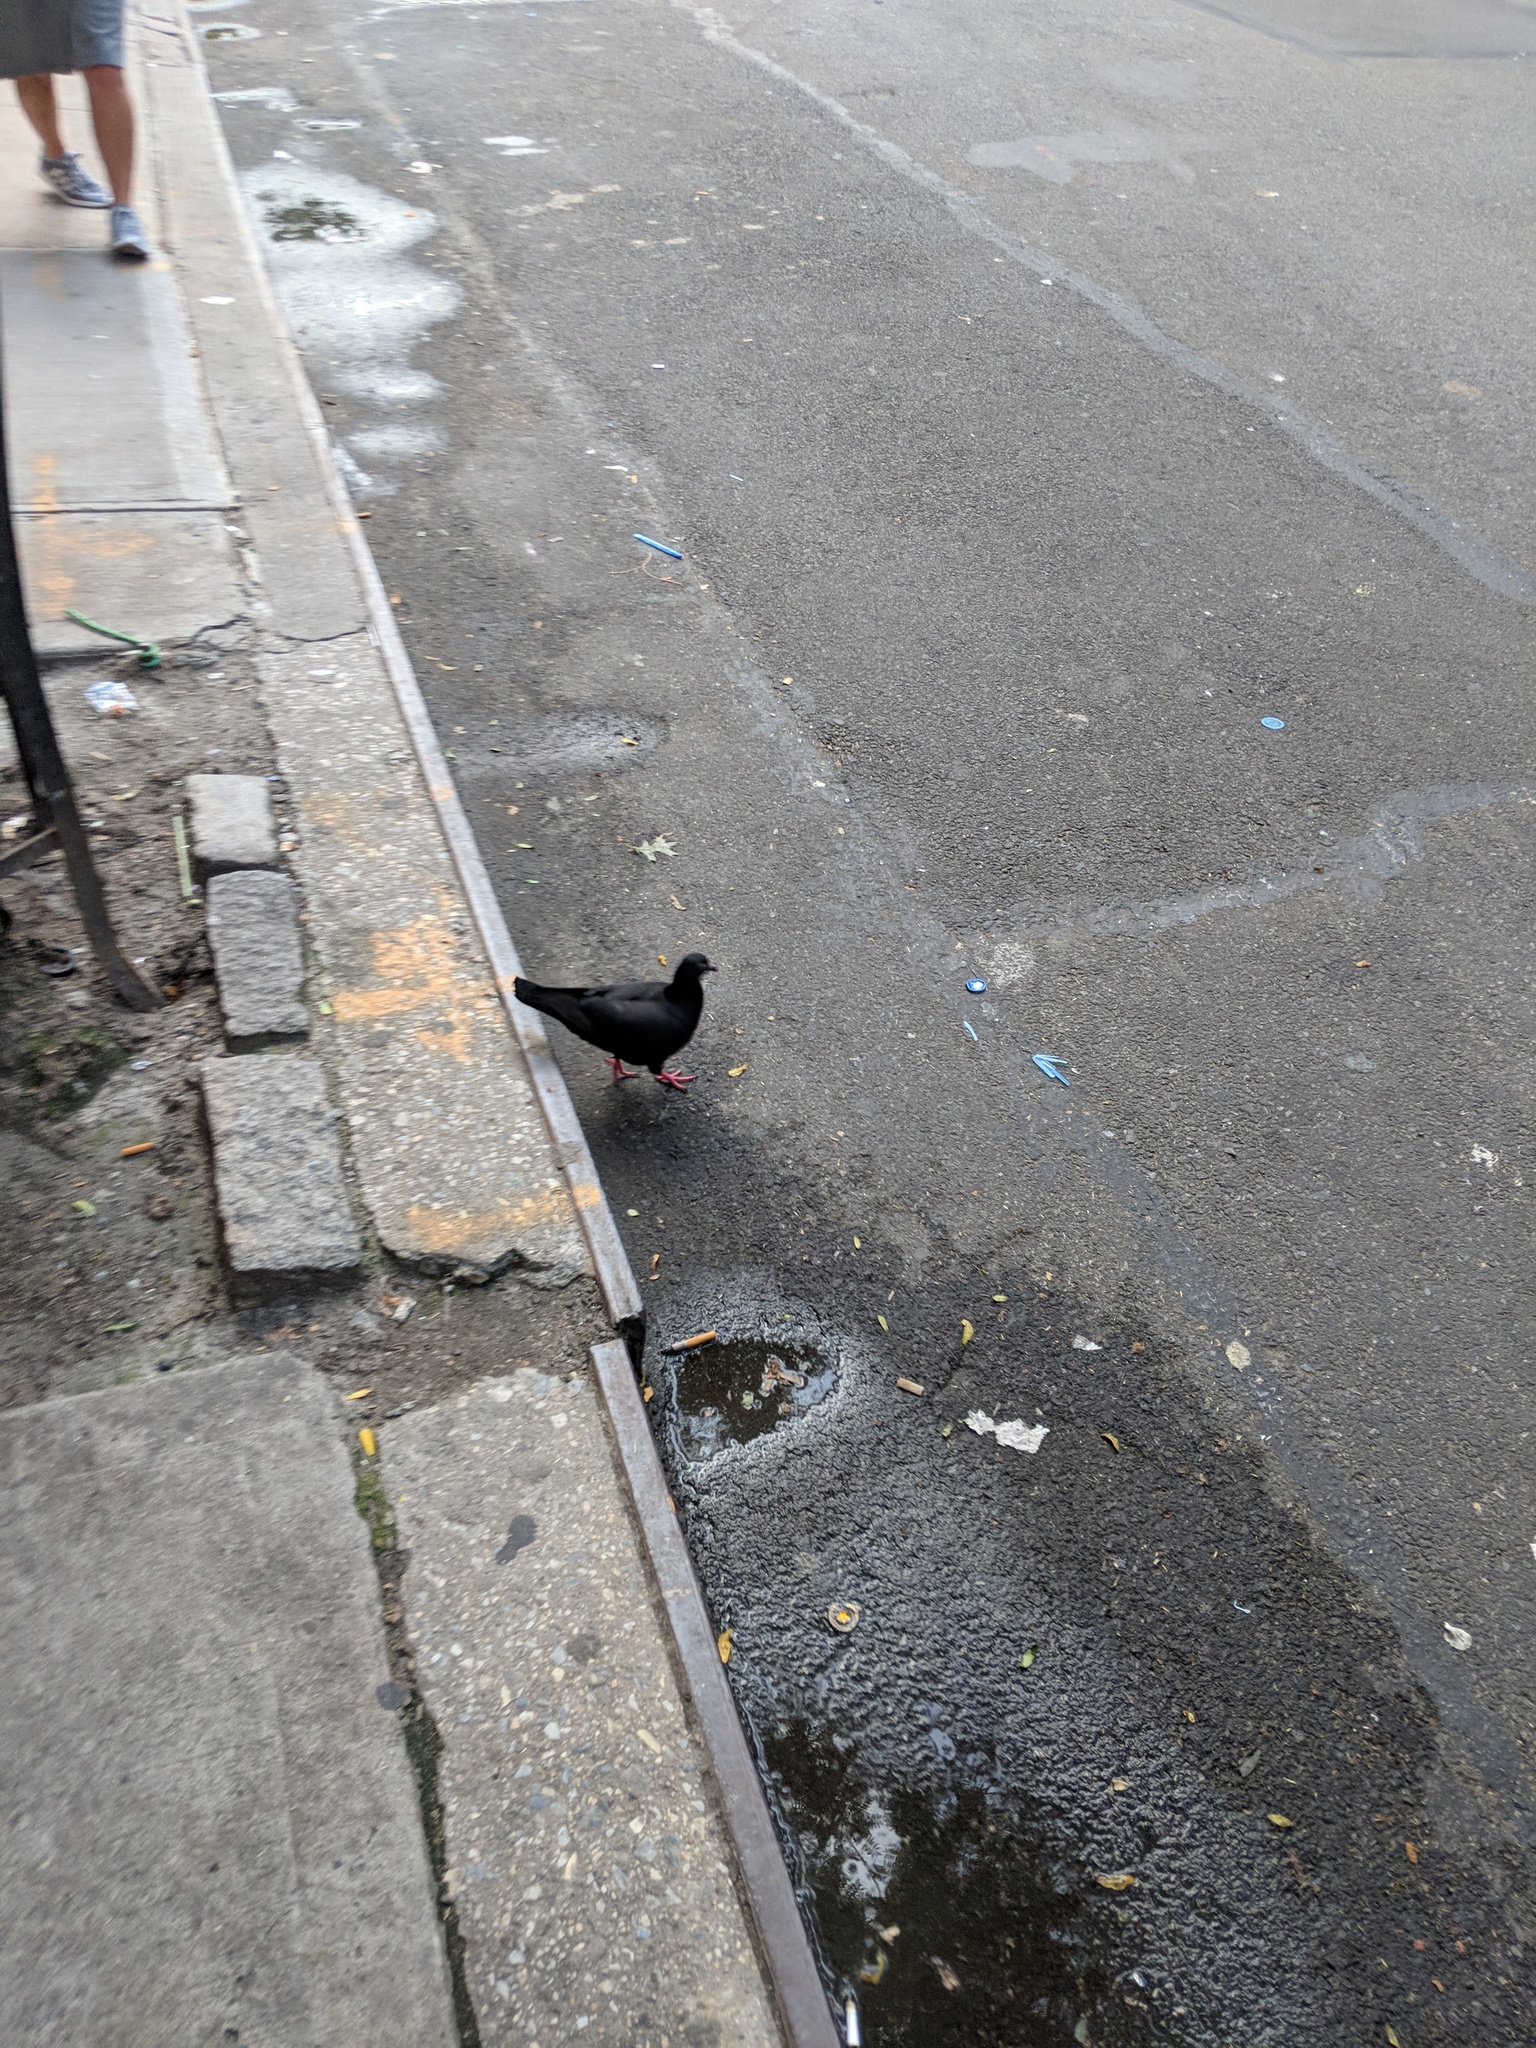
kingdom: Animalia
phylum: Chordata
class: Aves
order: Columbiformes
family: Columbidae
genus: Columba
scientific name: Columba livia
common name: Rock pigeon
